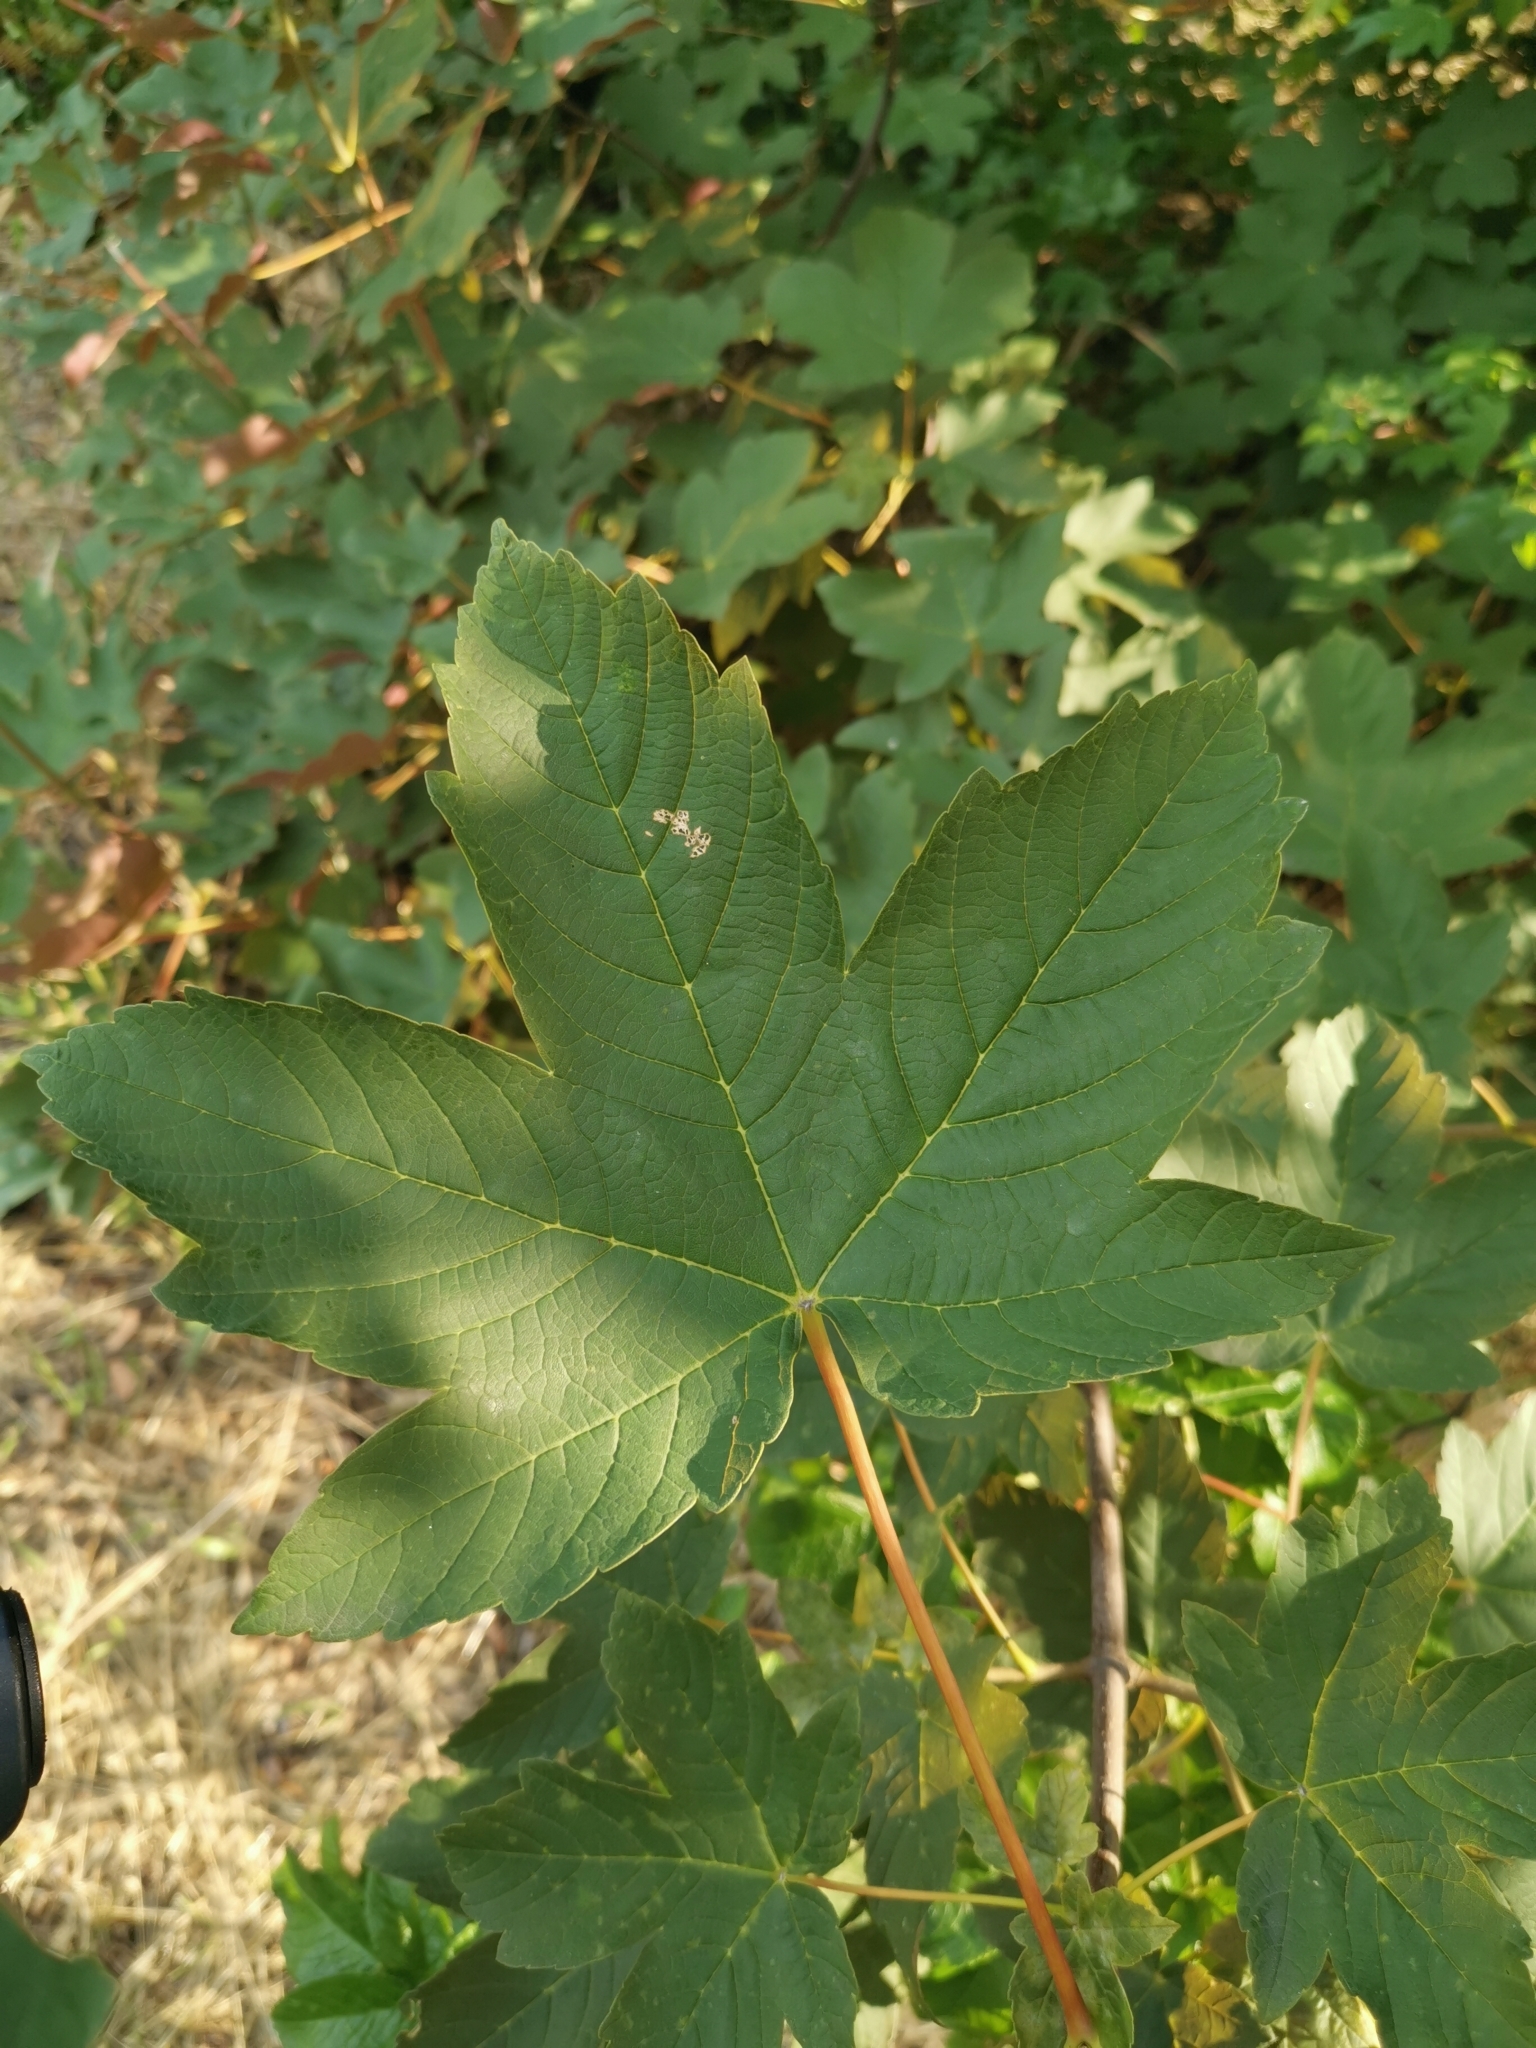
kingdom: Plantae
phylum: Tracheophyta
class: Magnoliopsida
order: Sapindales
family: Sapindaceae
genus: Acer
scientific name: Acer pseudoplatanus
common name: Sycamore
